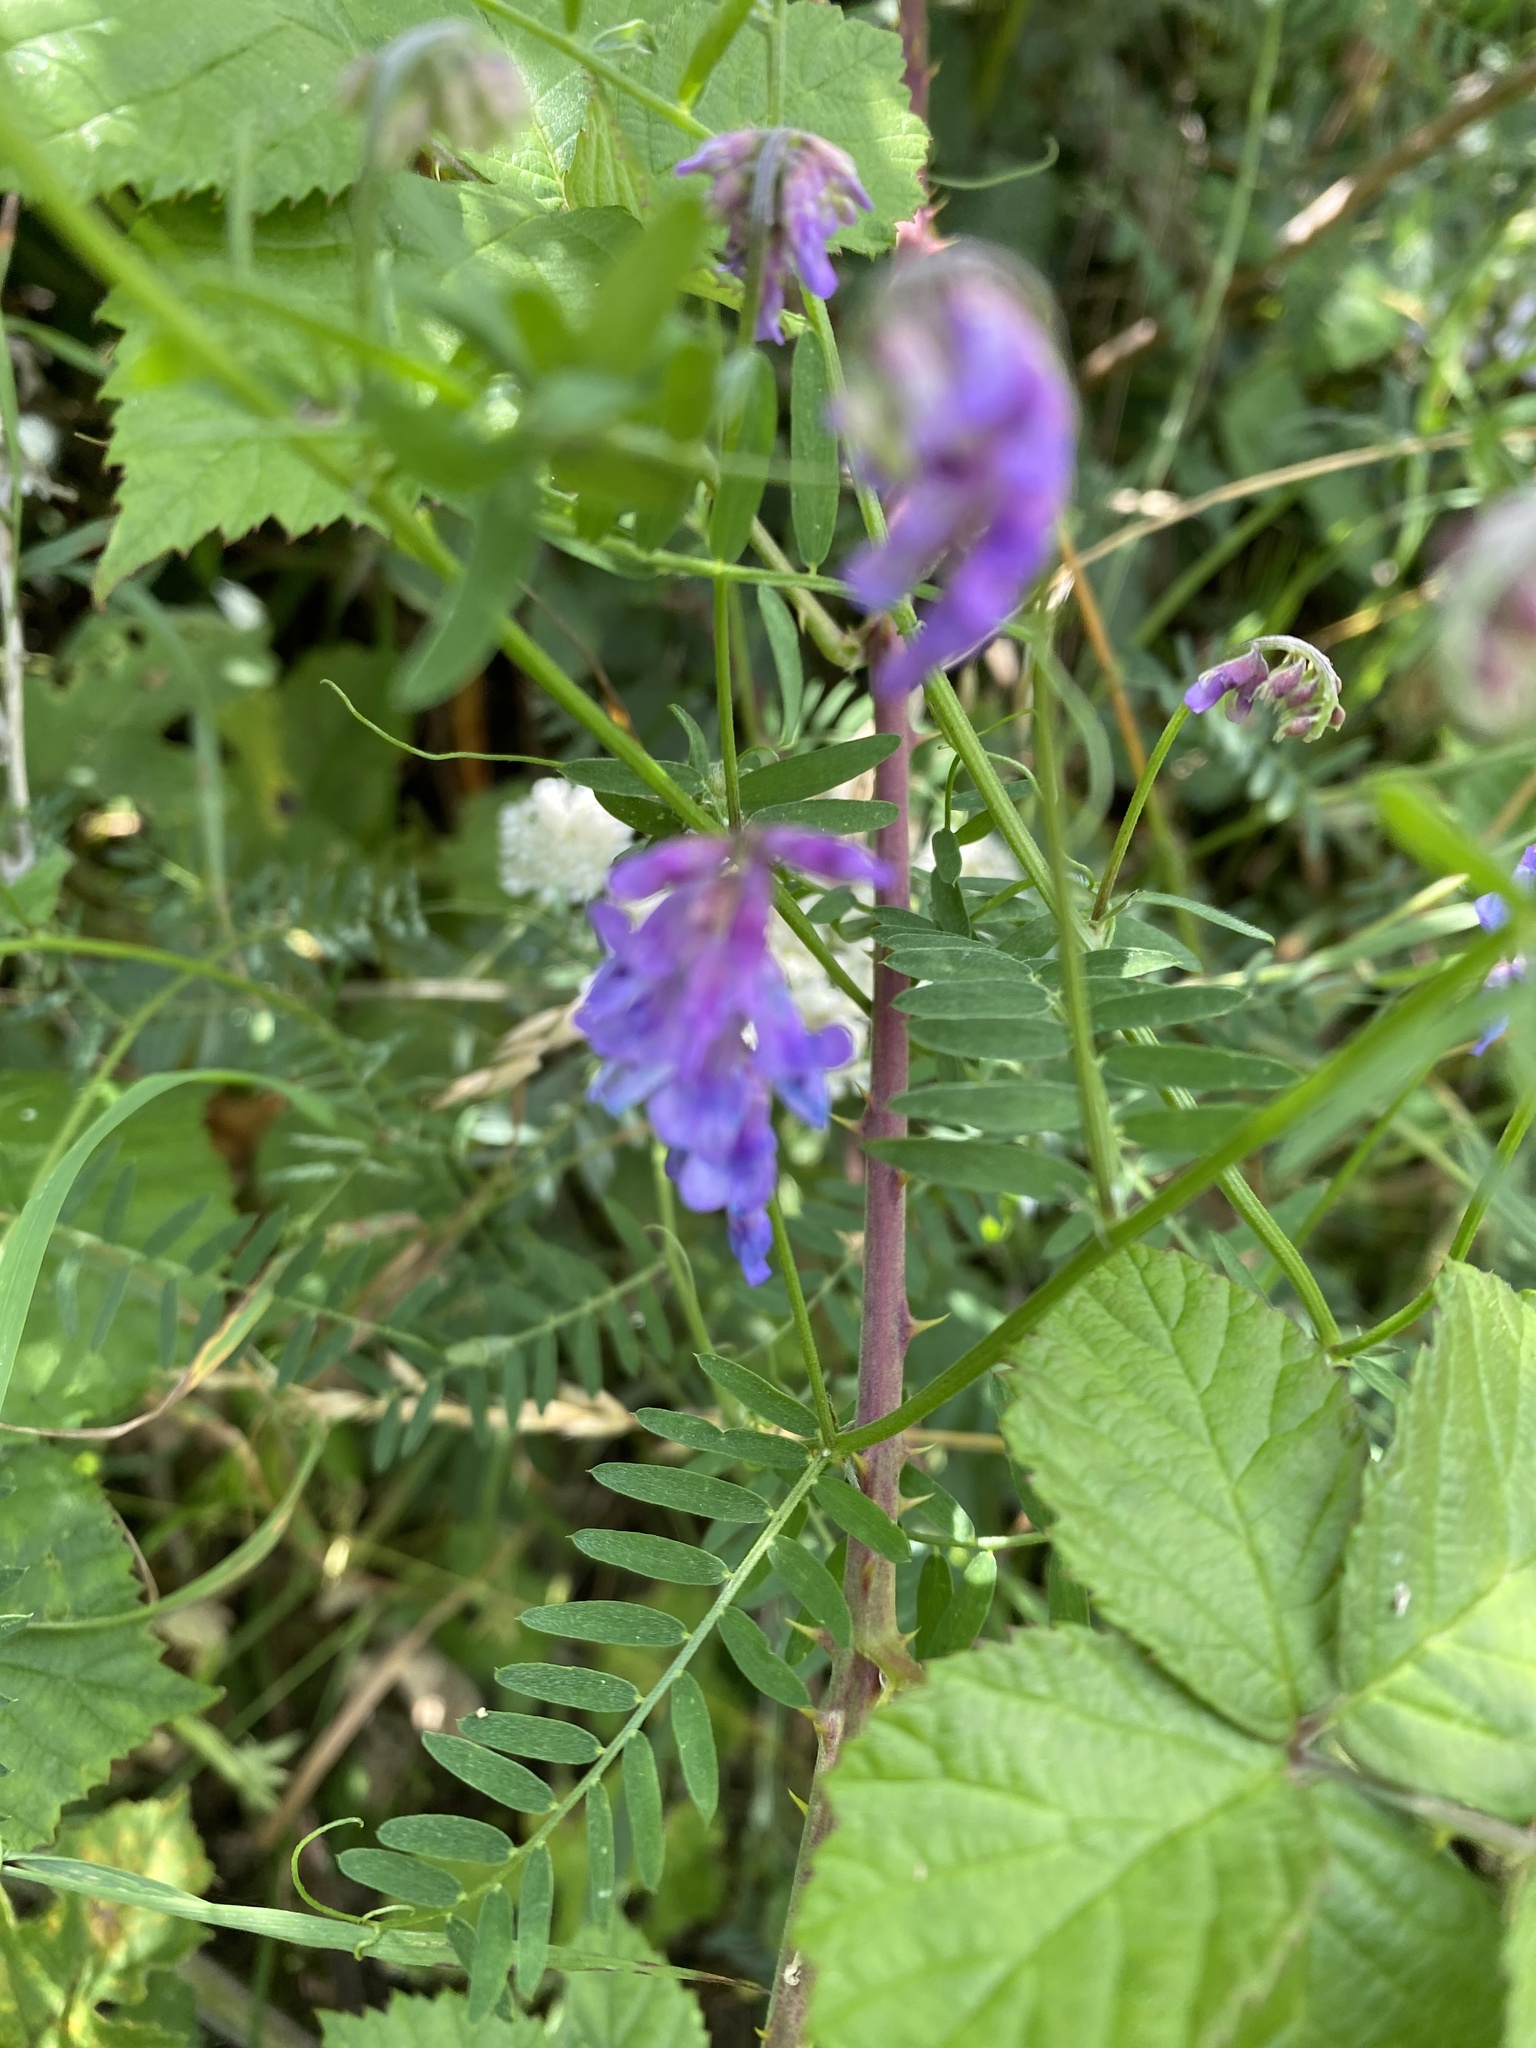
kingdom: Plantae
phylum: Tracheophyta
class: Magnoliopsida
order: Fabales
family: Fabaceae
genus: Vicia
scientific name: Vicia cracca
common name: Bird vetch
